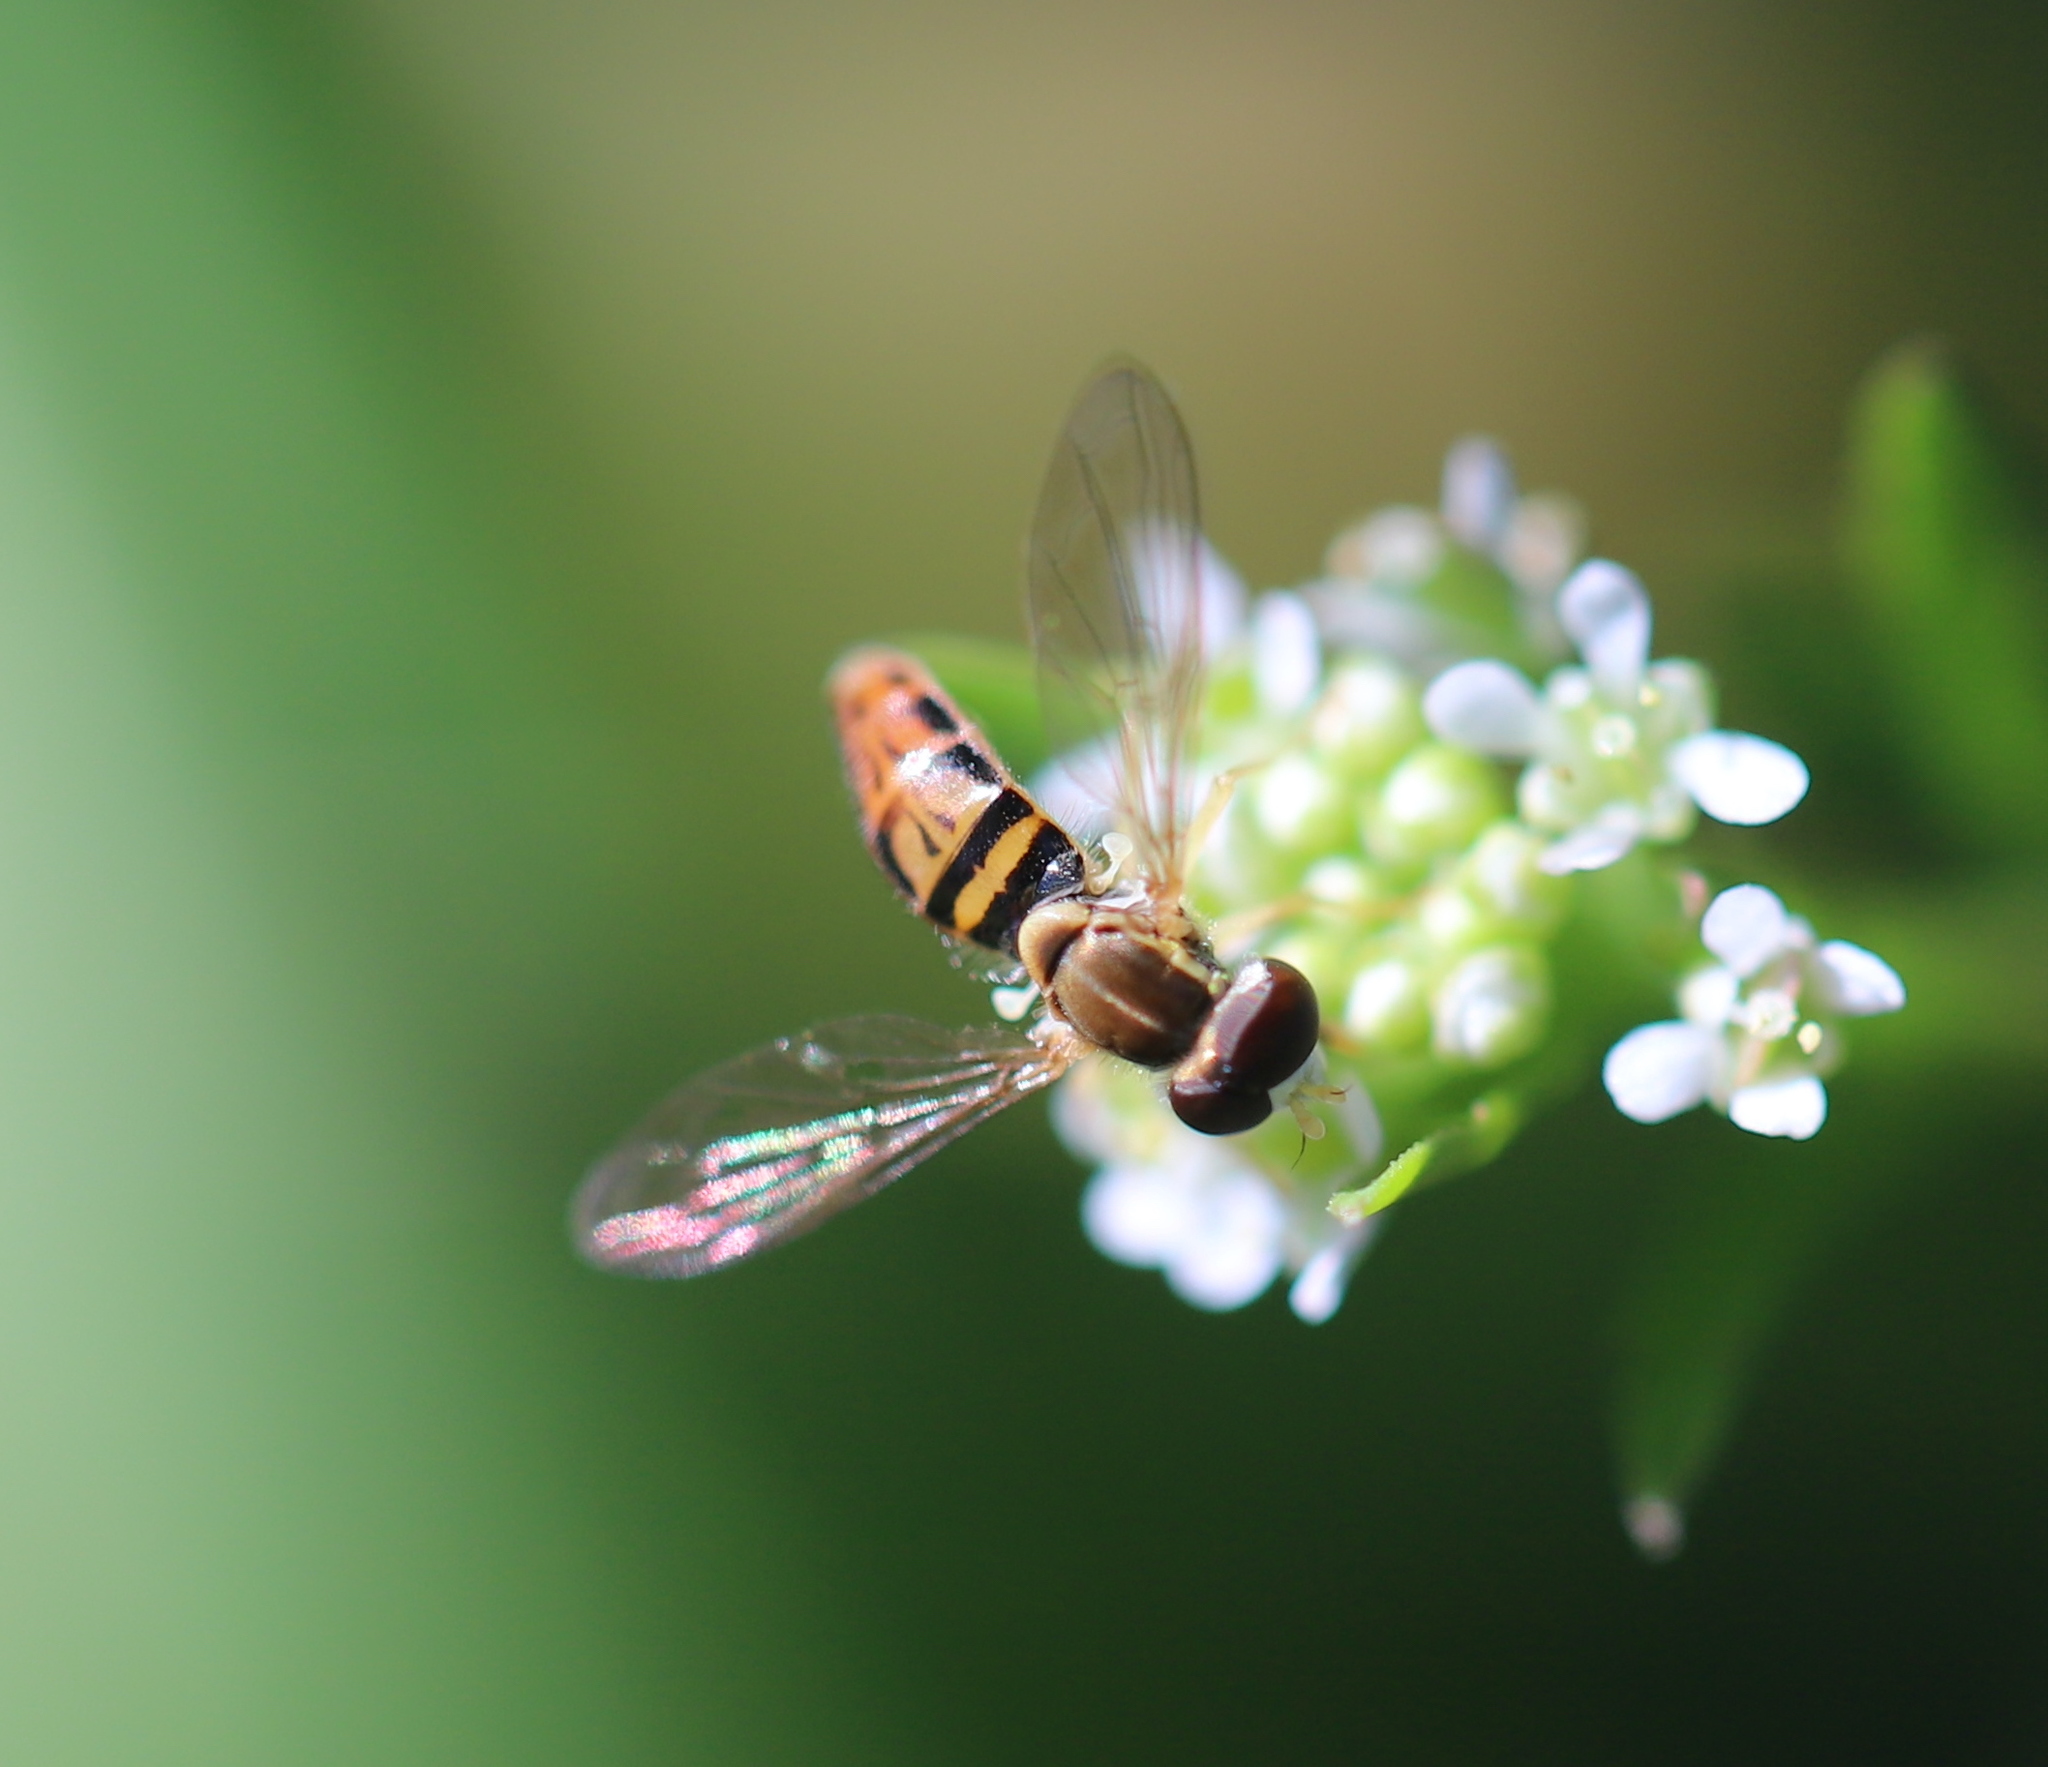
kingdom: Animalia
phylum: Arthropoda
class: Insecta
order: Diptera
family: Syrphidae
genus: Toxomerus
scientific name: Toxomerus marginatus
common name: Syrphid fly
